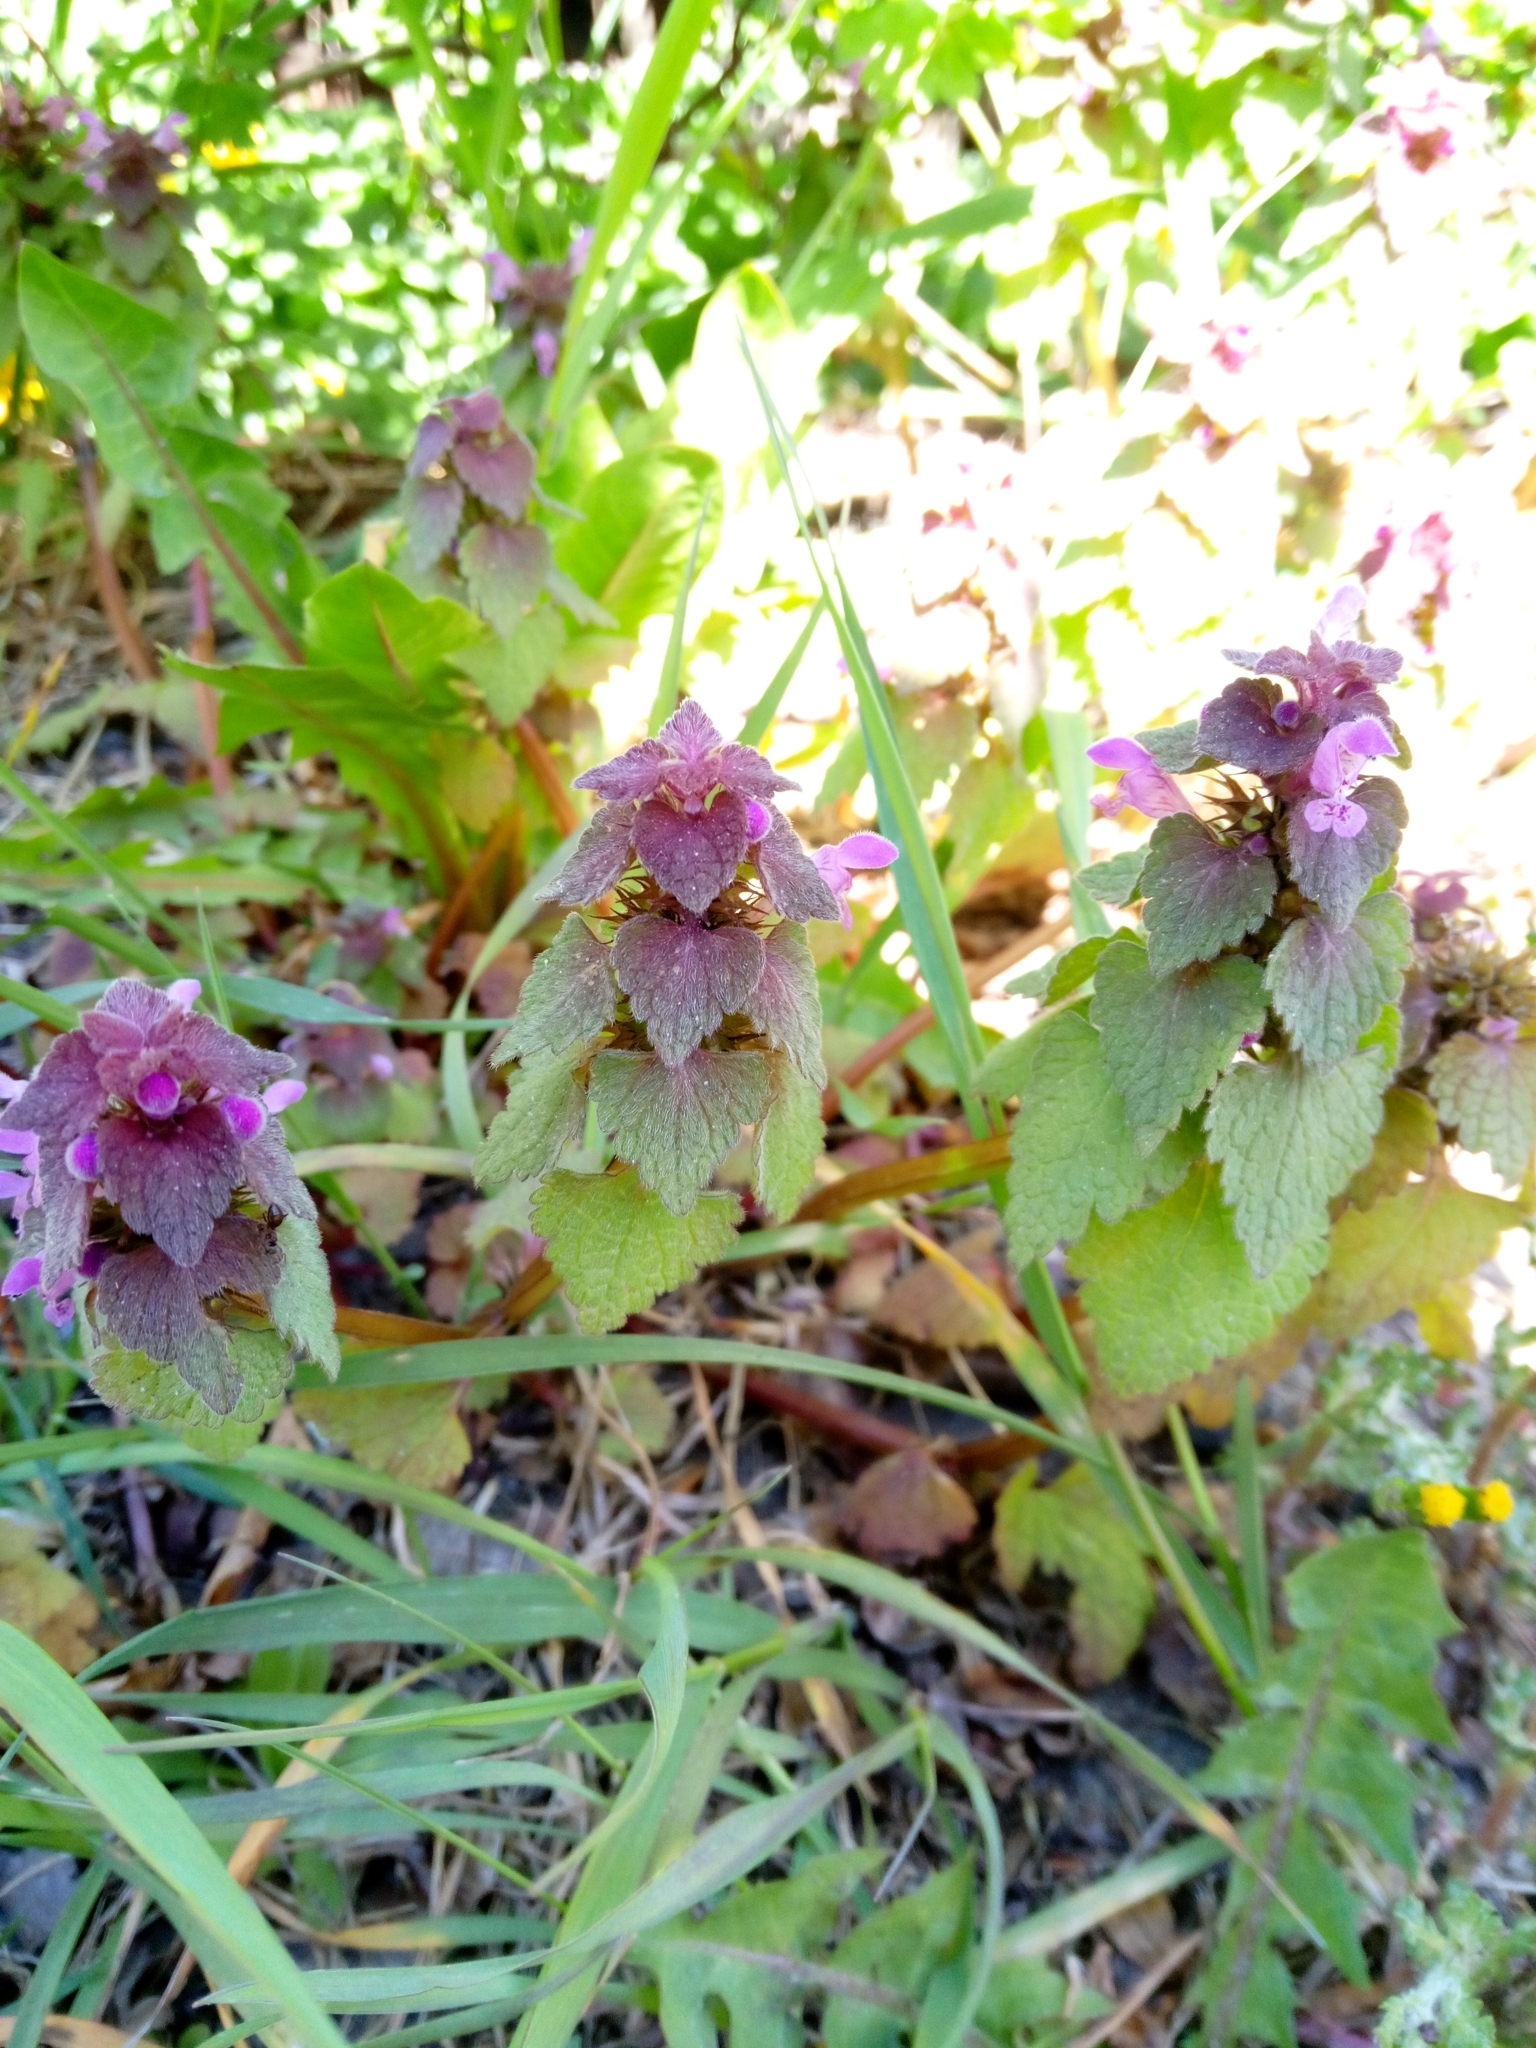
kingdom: Plantae
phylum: Tracheophyta
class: Magnoliopsida
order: Lamiales
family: Lamiaceae
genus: Lamium
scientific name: Lamium purpureum
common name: Red dead-nettle
